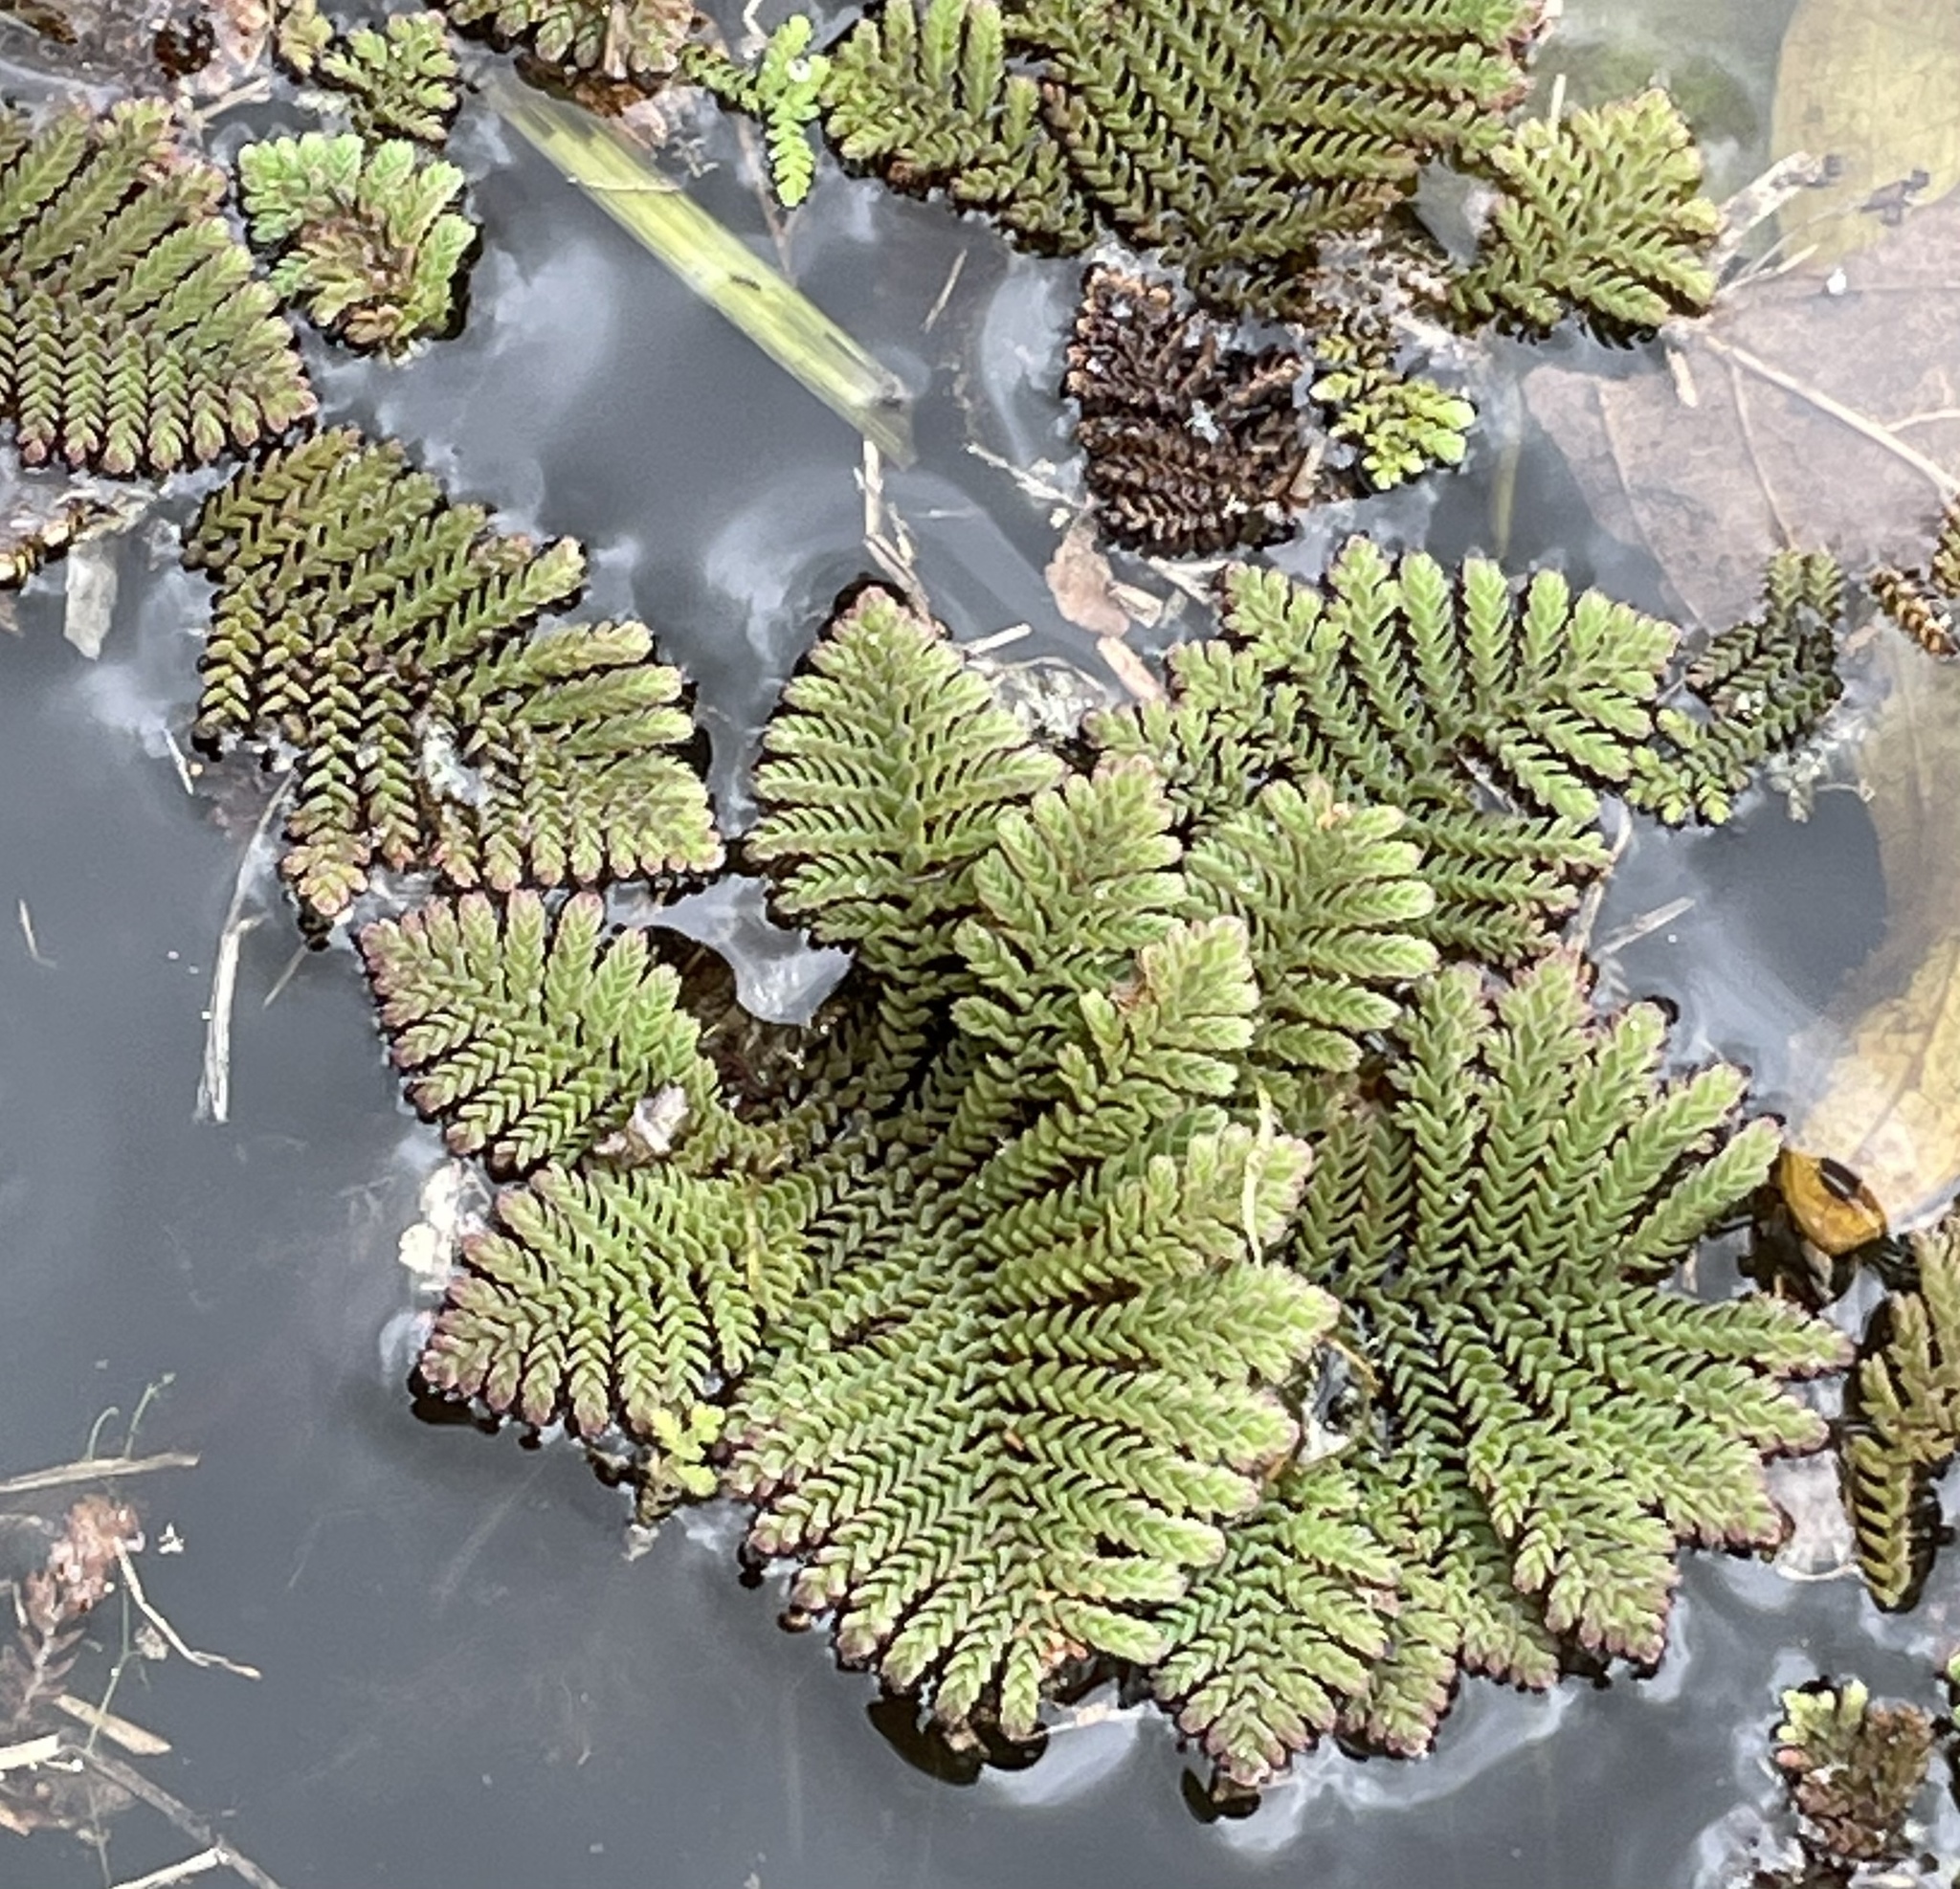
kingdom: Plantae
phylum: Tracheophyta
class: Polypodiopsida
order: Salviniales
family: Salviniaceae
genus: Azolla
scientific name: Azolla pinnata
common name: Ferny azolla
